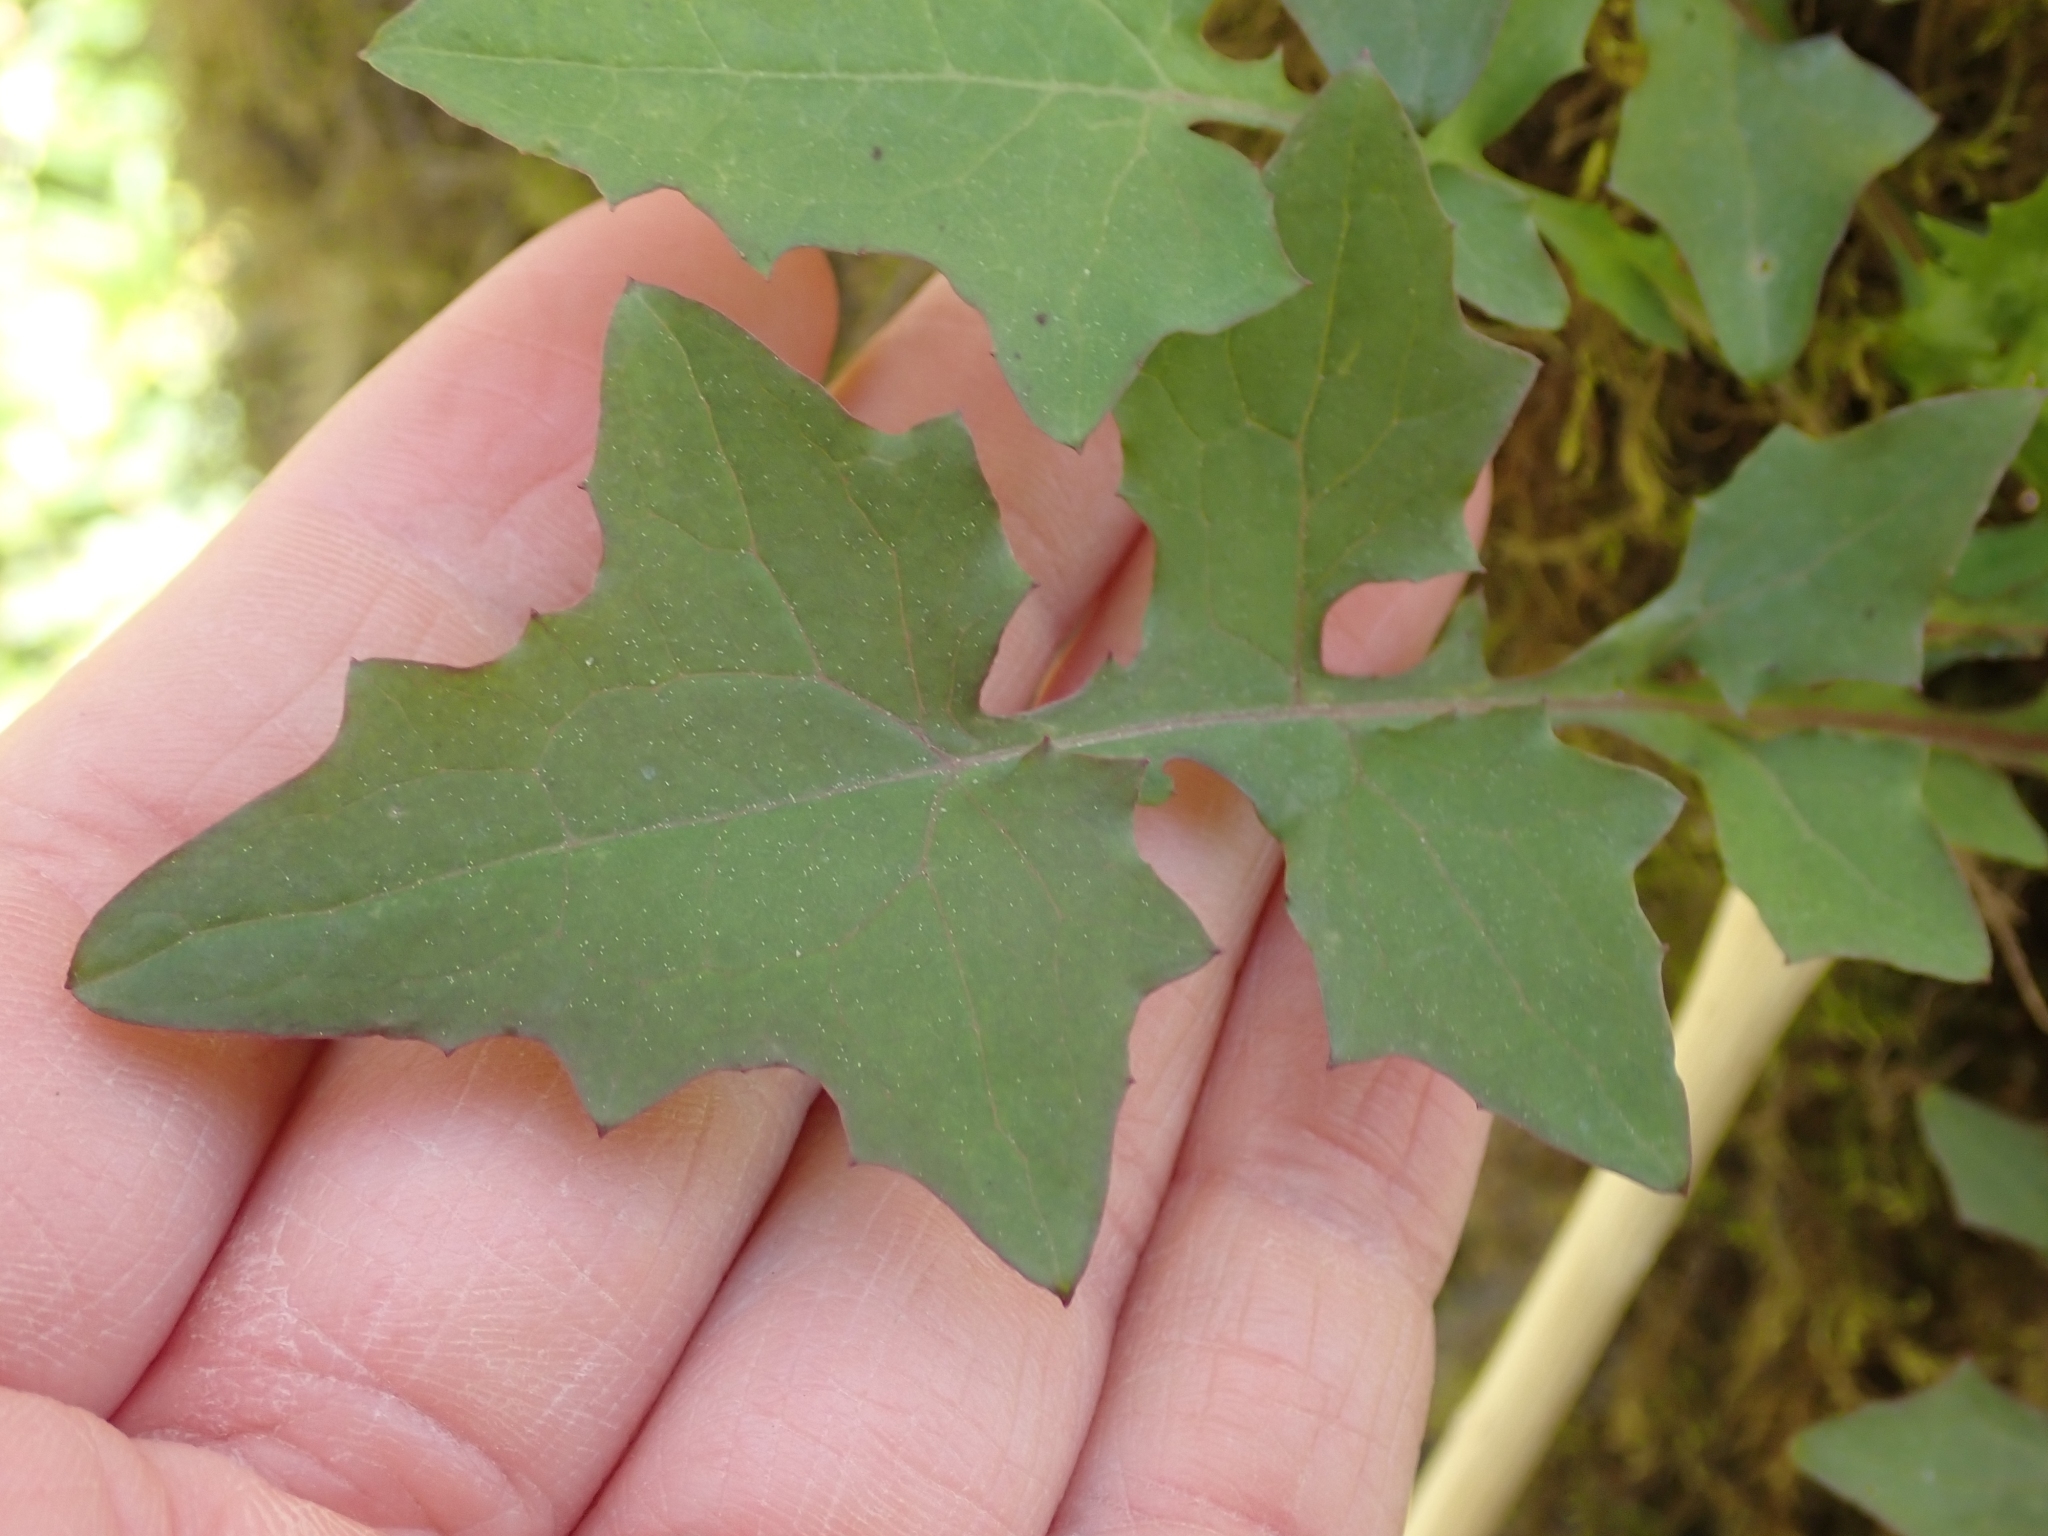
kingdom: Plantae
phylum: Tracheophyta
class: Magnoliopsida
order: Asterales
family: Asteraceae
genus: Mycelis
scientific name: Mycelis muralis
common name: Wall lettuce
